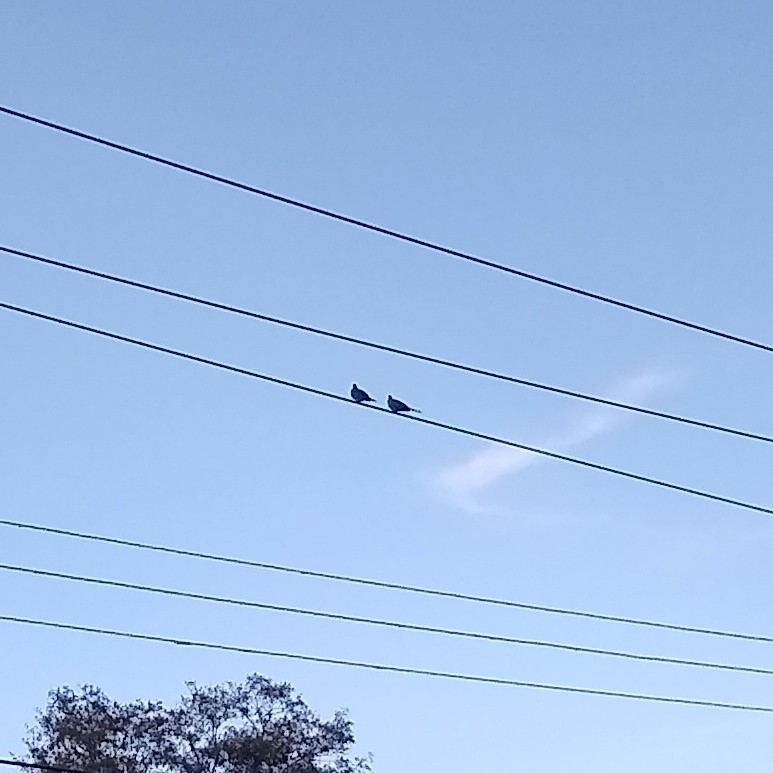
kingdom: Animalia
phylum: Chordata
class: Aves
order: Columbiformes
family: Columbidae
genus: Zenaida
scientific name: Zenaida macroura
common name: Mourning dove
